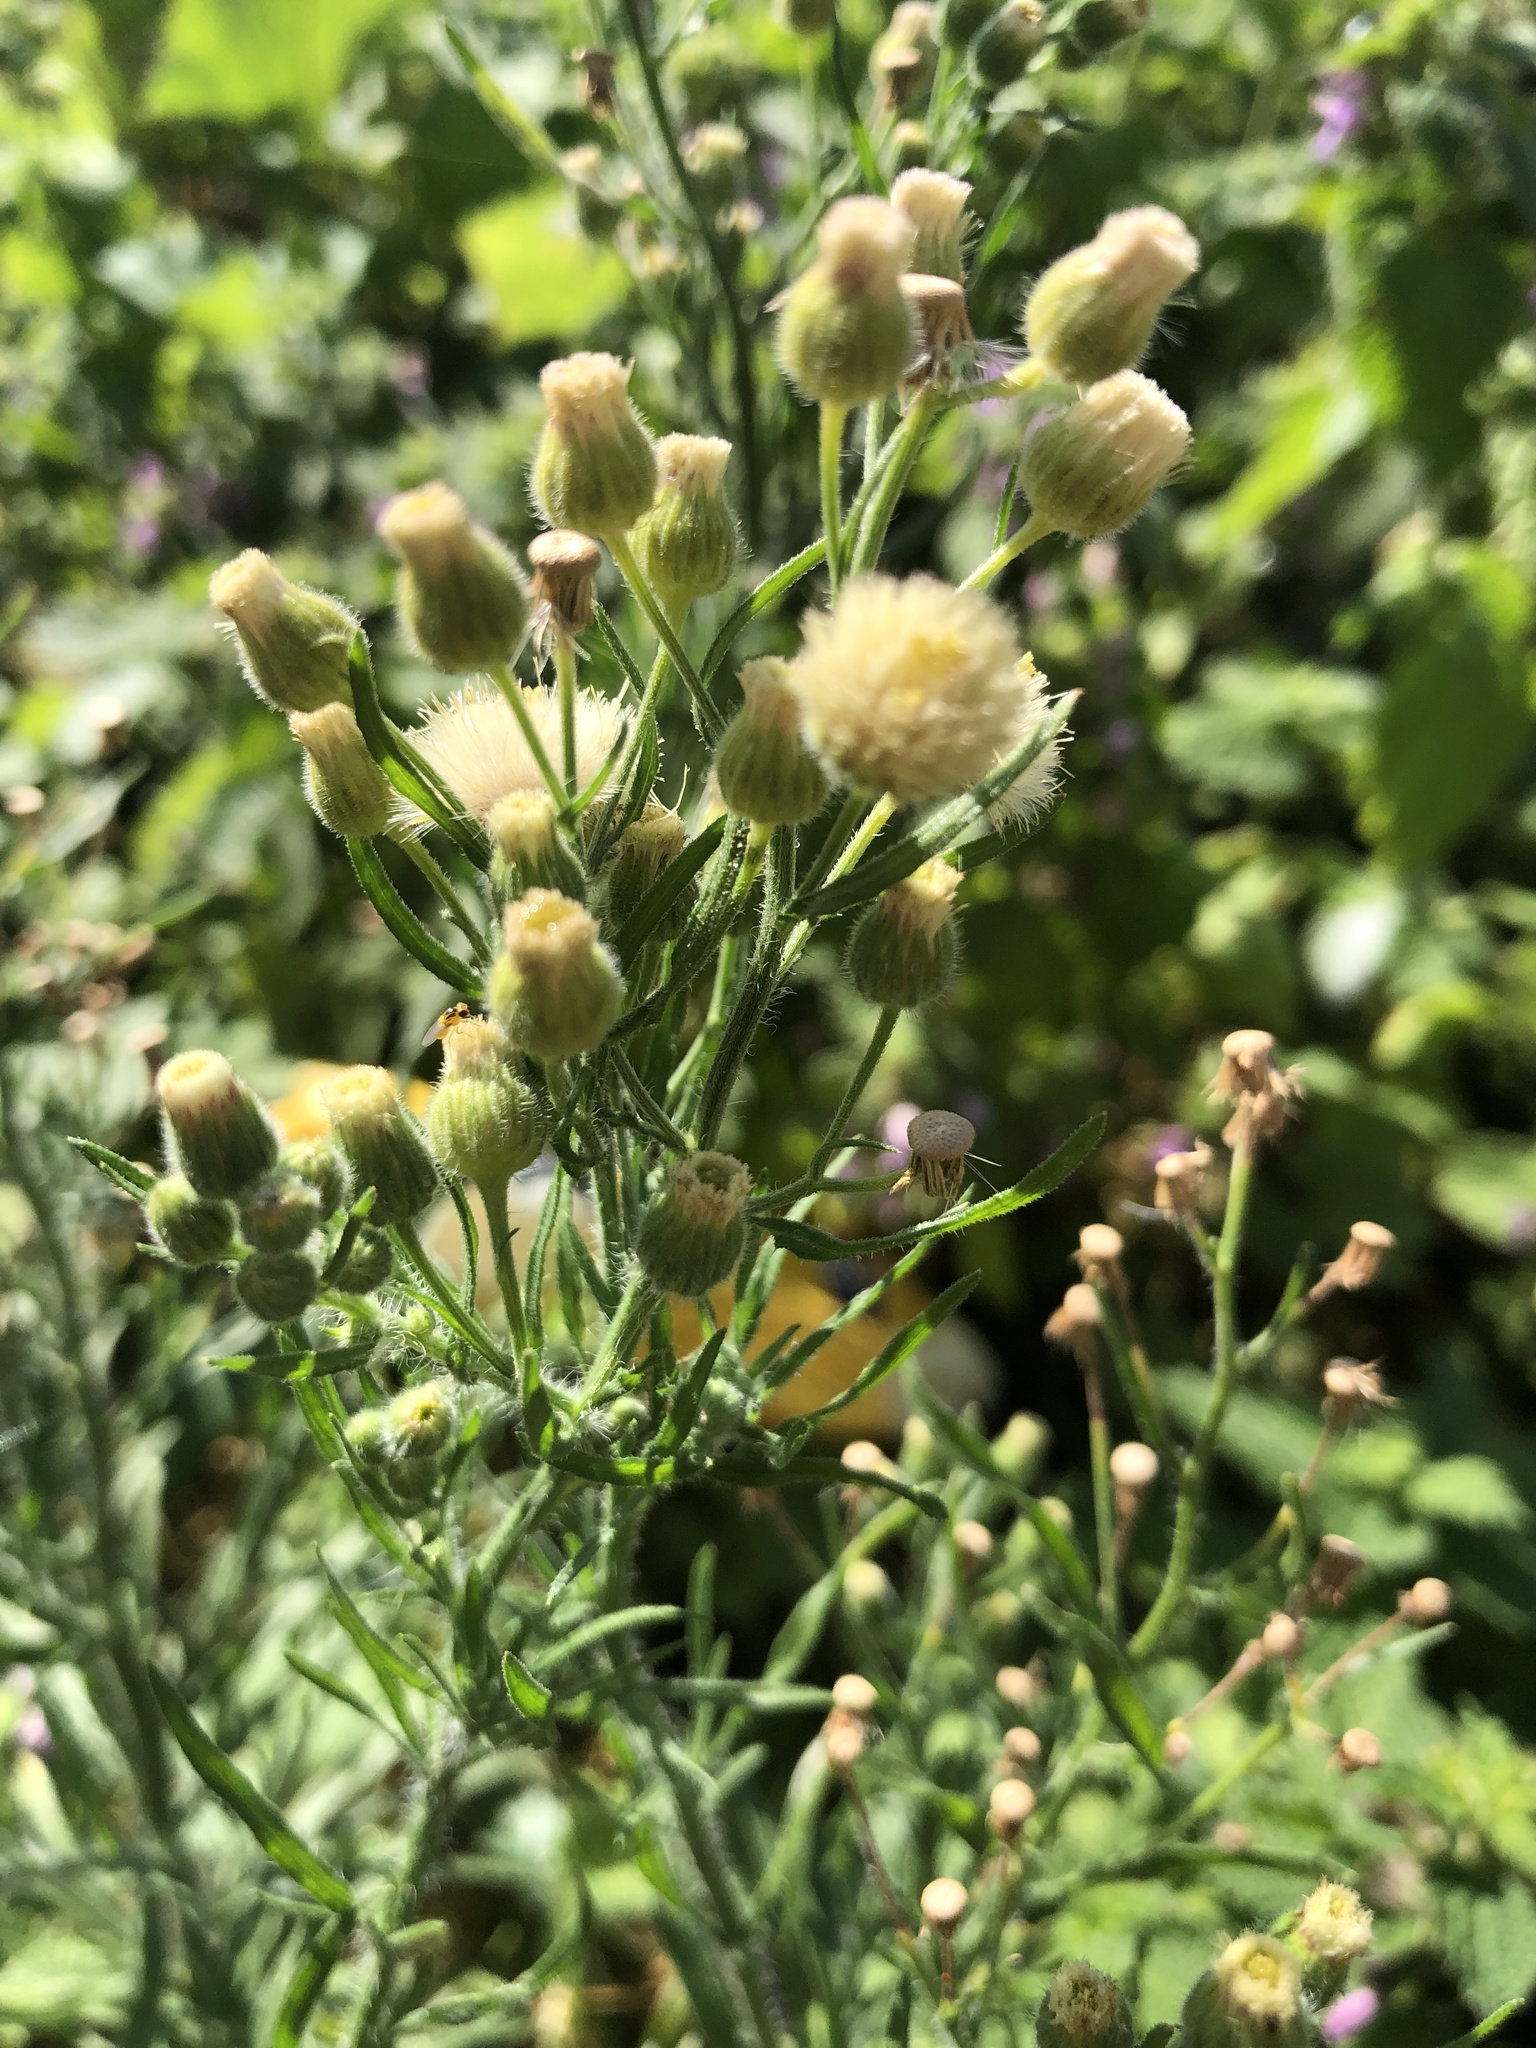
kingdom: Plantae
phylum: Tracheophyta
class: Magnoliopsida
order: Asterales
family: Asteraceae
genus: Erigeron
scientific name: Erigeron sumatrensis
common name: Daisy
